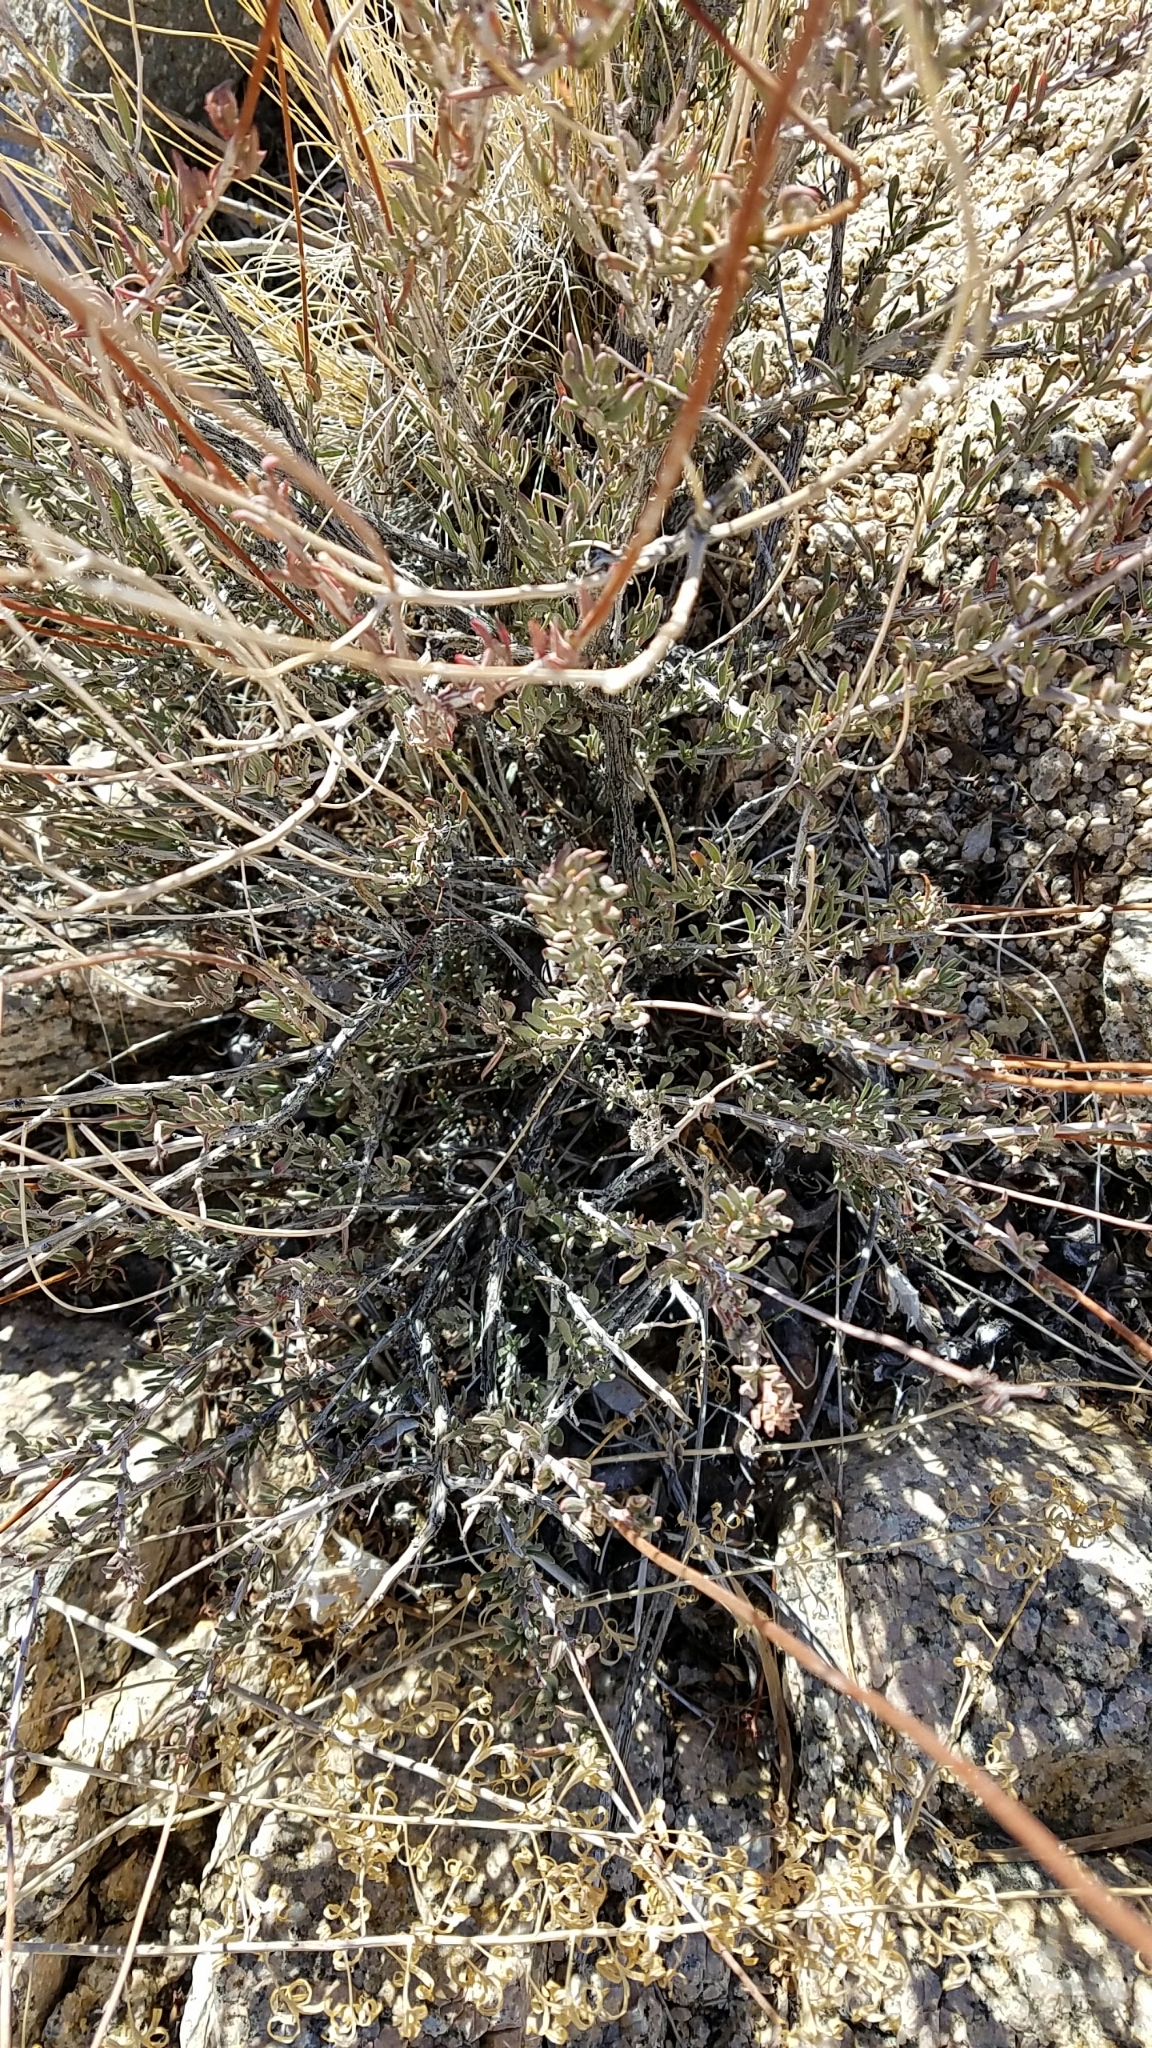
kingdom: Plantae
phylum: Tracheophyta
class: Magnoliopsida
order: Caryophyllales
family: Polygonaceae
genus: Eriogonum
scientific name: Eriogonum fasciculatum
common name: California wild buckwheat
